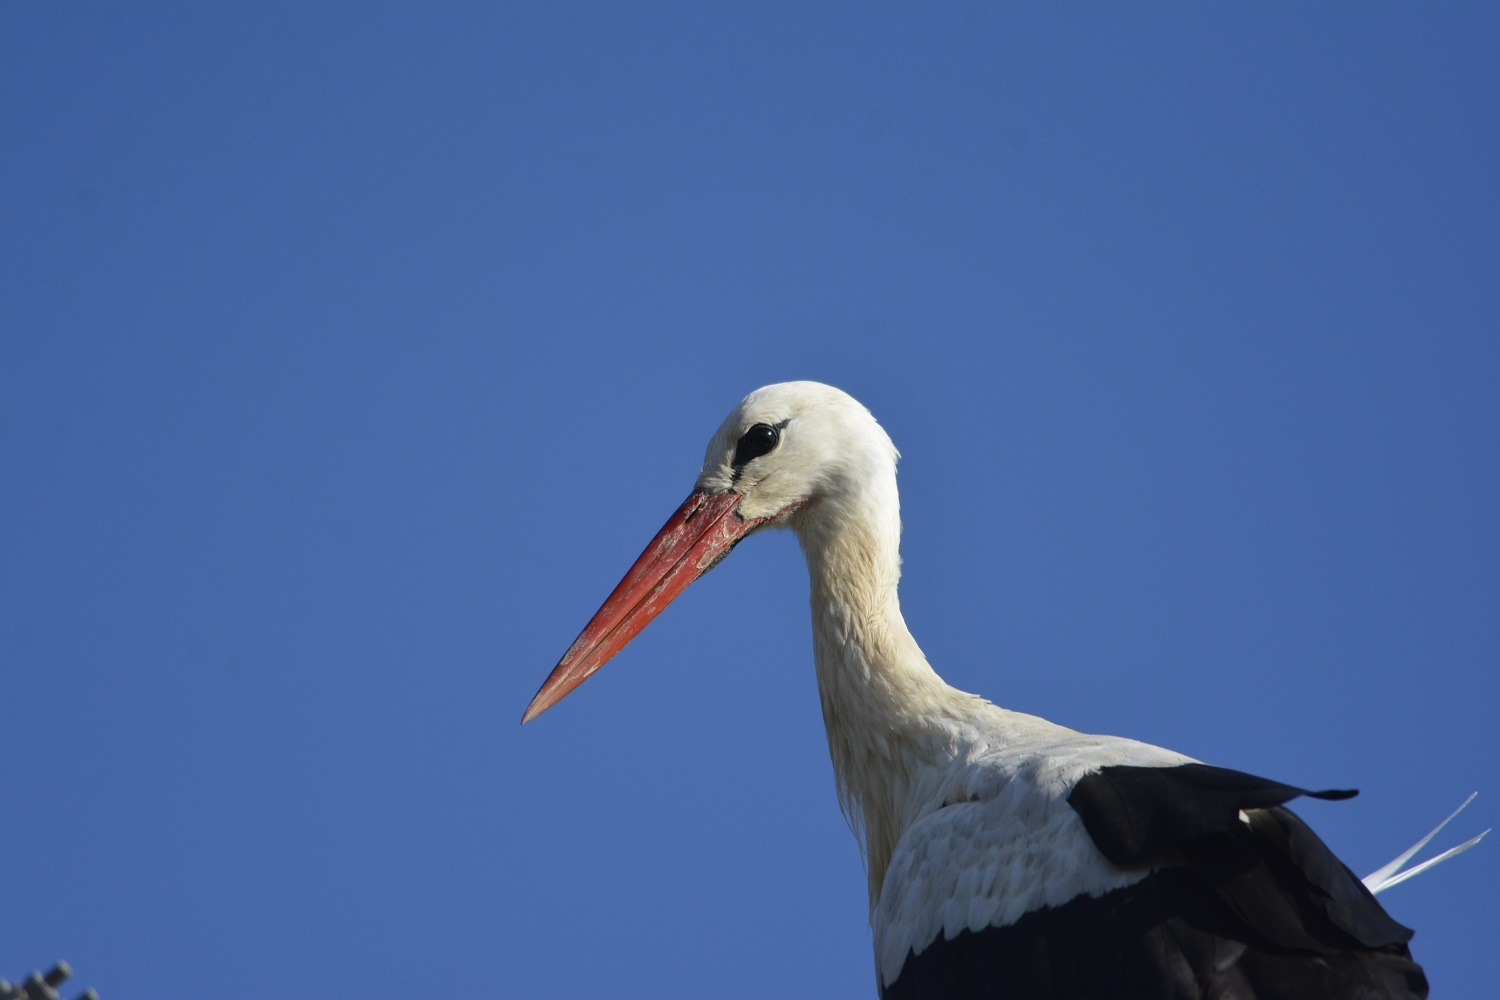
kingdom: Animalia
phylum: Chordata
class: Aves
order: Ciconiiformes
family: Ciconiidae
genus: Ciconia
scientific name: Ciconia ciconia
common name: White stork
